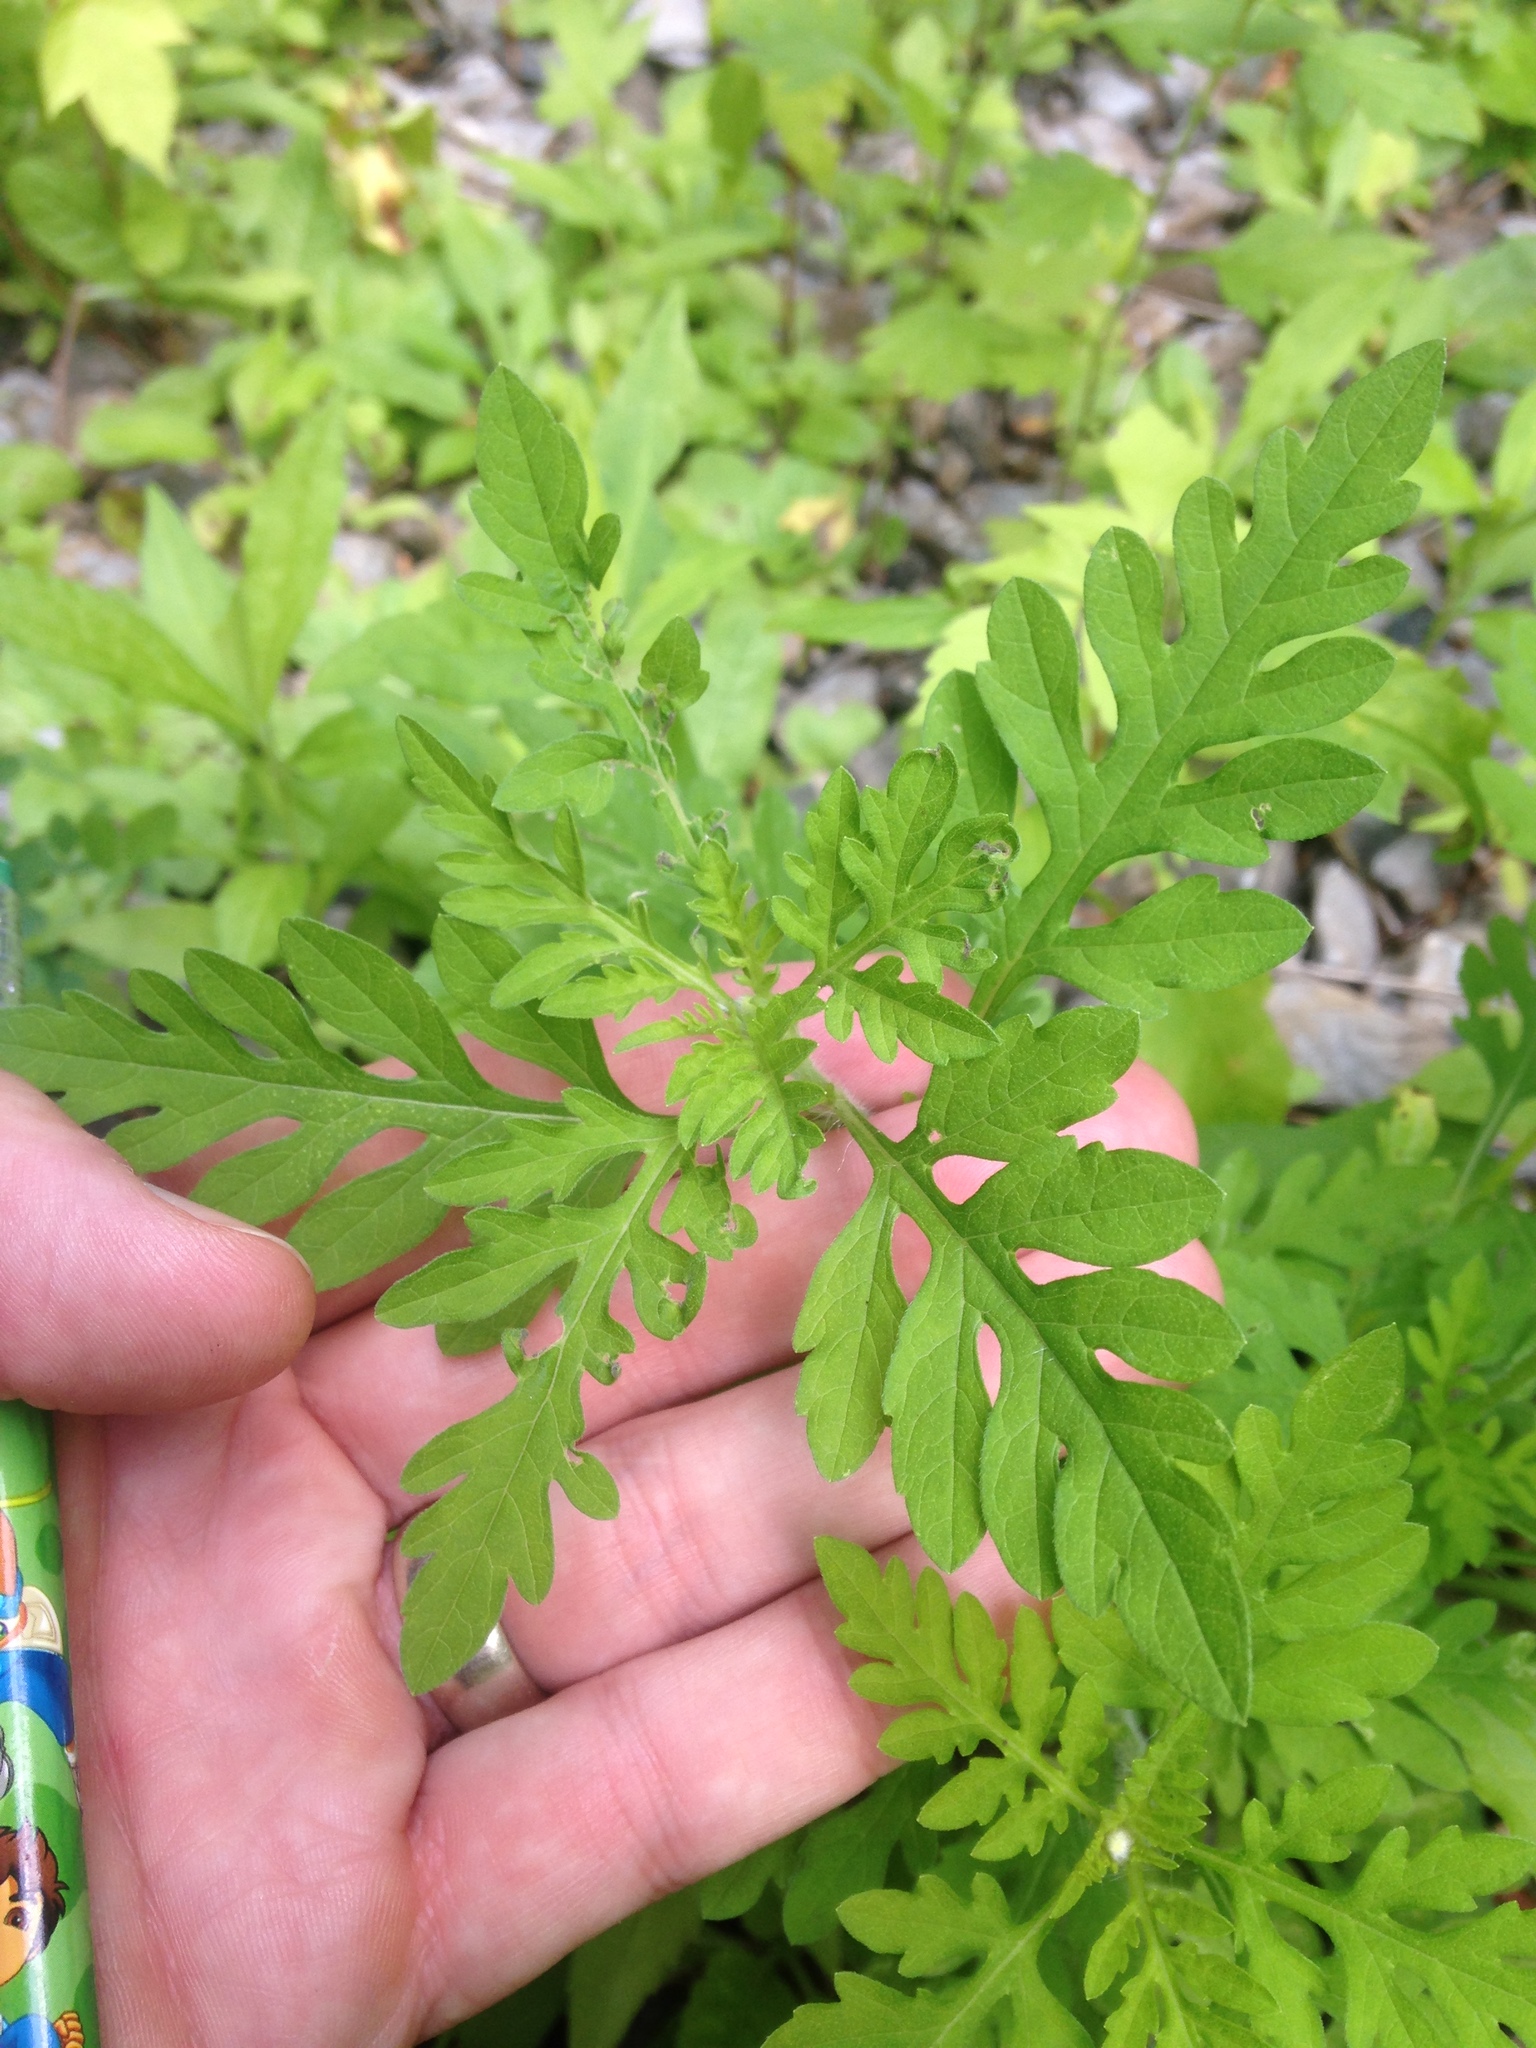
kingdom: Plantae
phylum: Tracheophyta
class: Magnoliopsida
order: Asterales
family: Asteraceae
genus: Ambrosia
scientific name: Ambrosia artemisiifolia
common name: Annual ragweed
